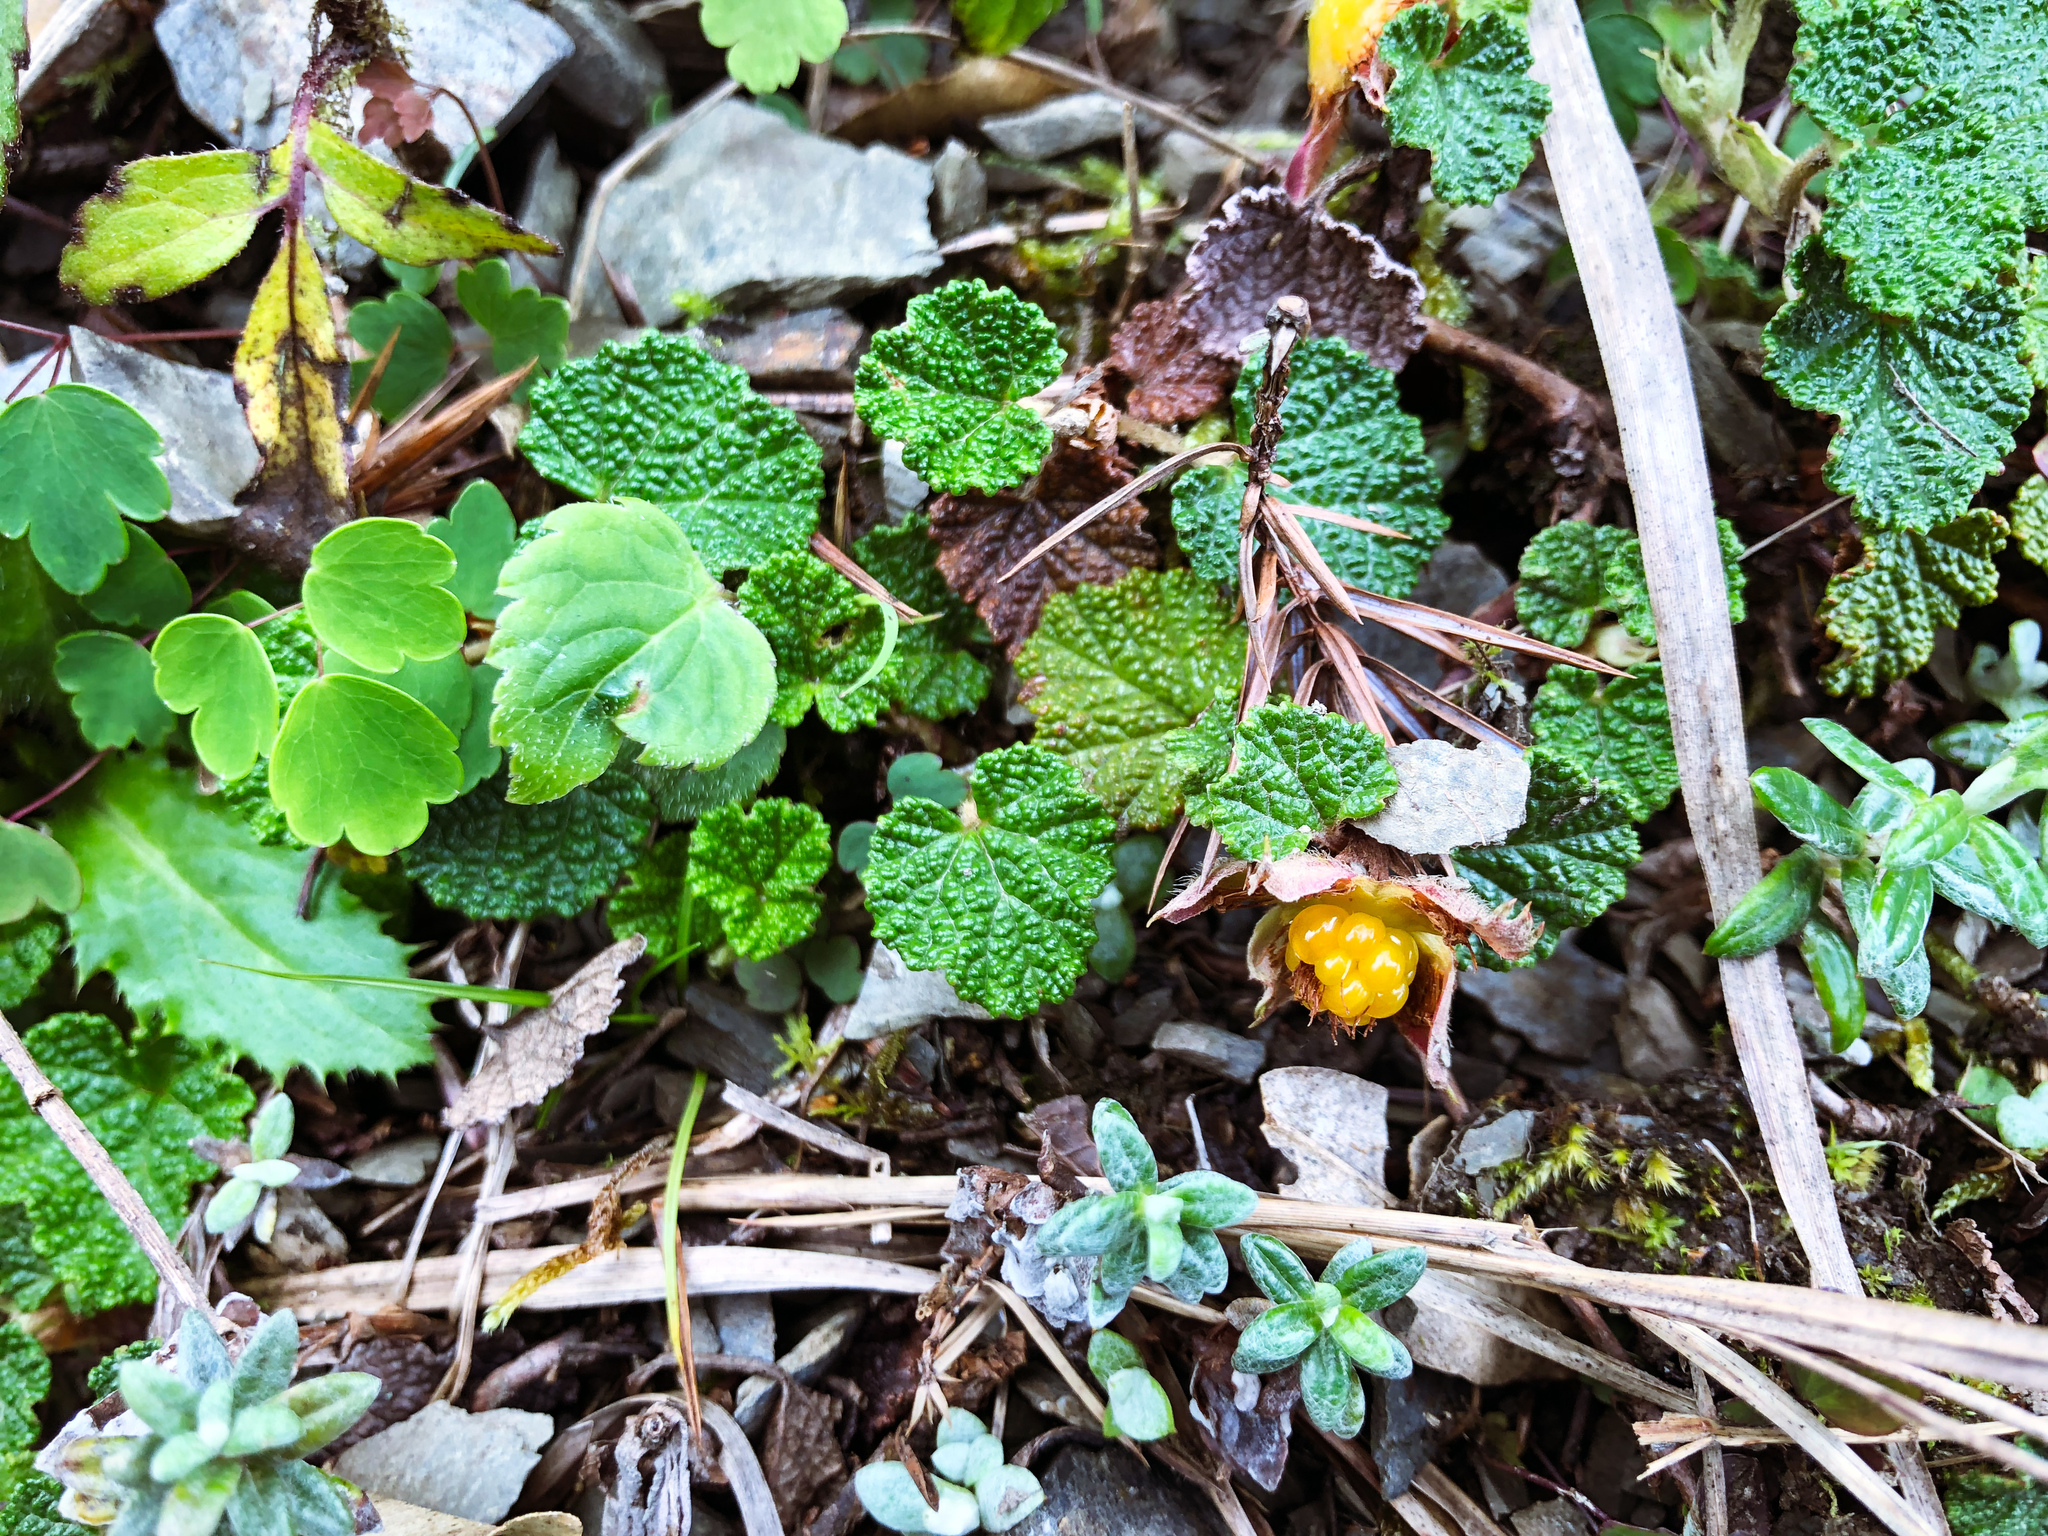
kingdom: Plantae
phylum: Tracheophyta
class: Magnoliopsida
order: Rosales
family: Rosaceae
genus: Rubus
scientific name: Rubus rolfei
